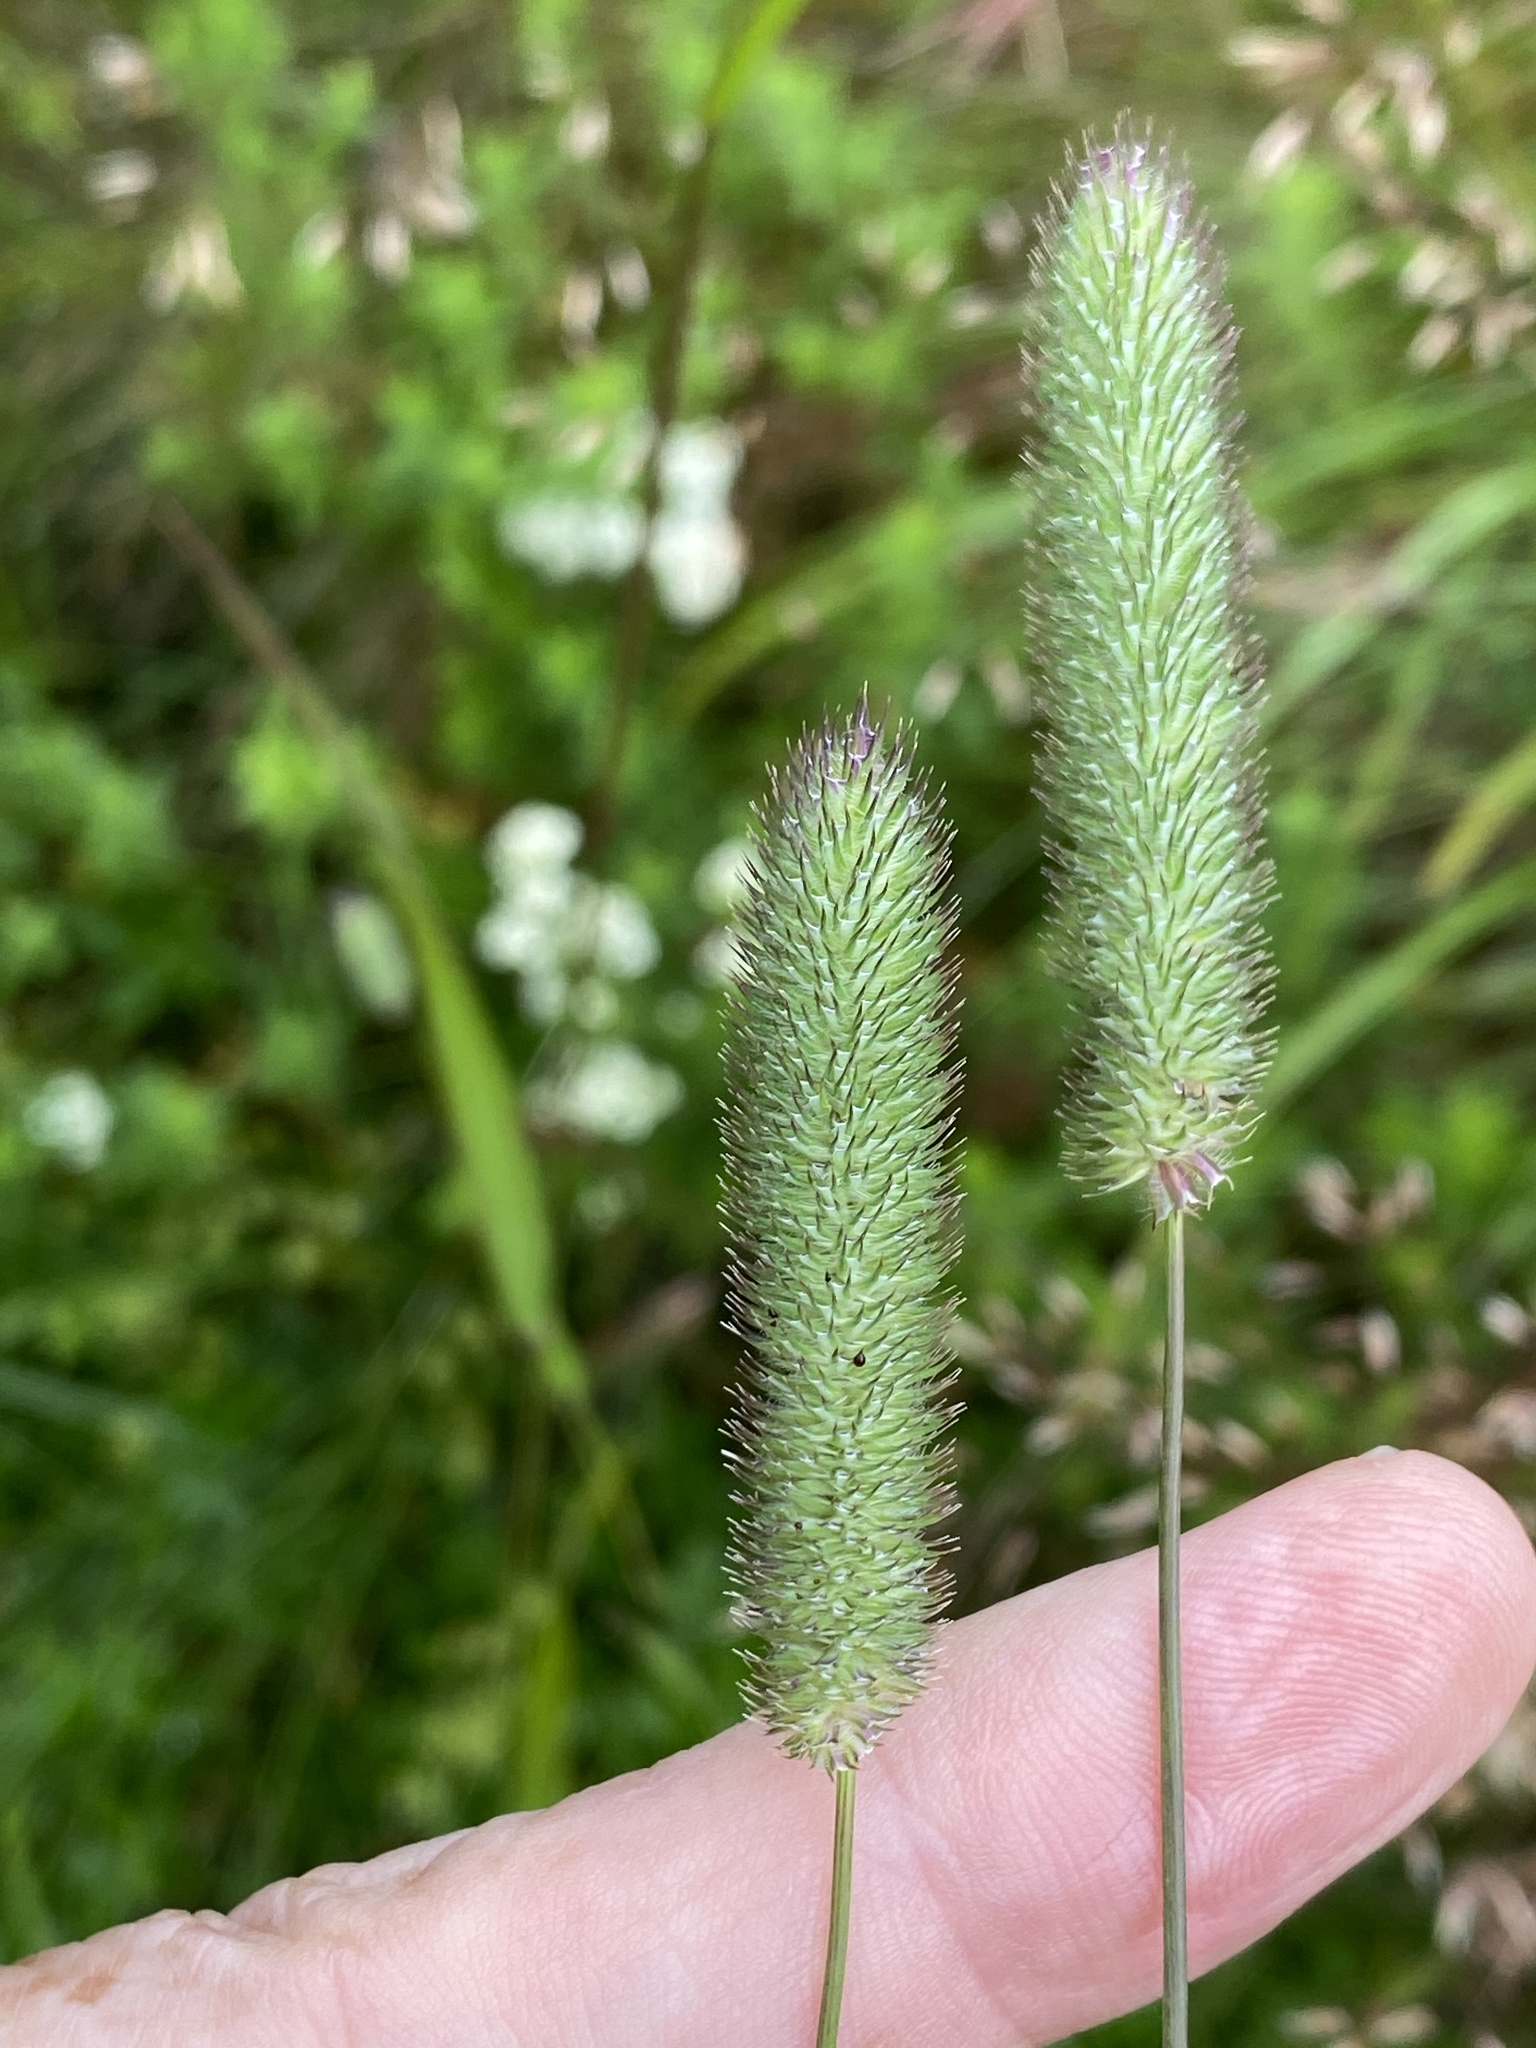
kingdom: Plantae
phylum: Tracheophyta
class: Liliopsida
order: Poales
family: Poaceae
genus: Phleum
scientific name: Phleum pratense
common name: Timothy grass
